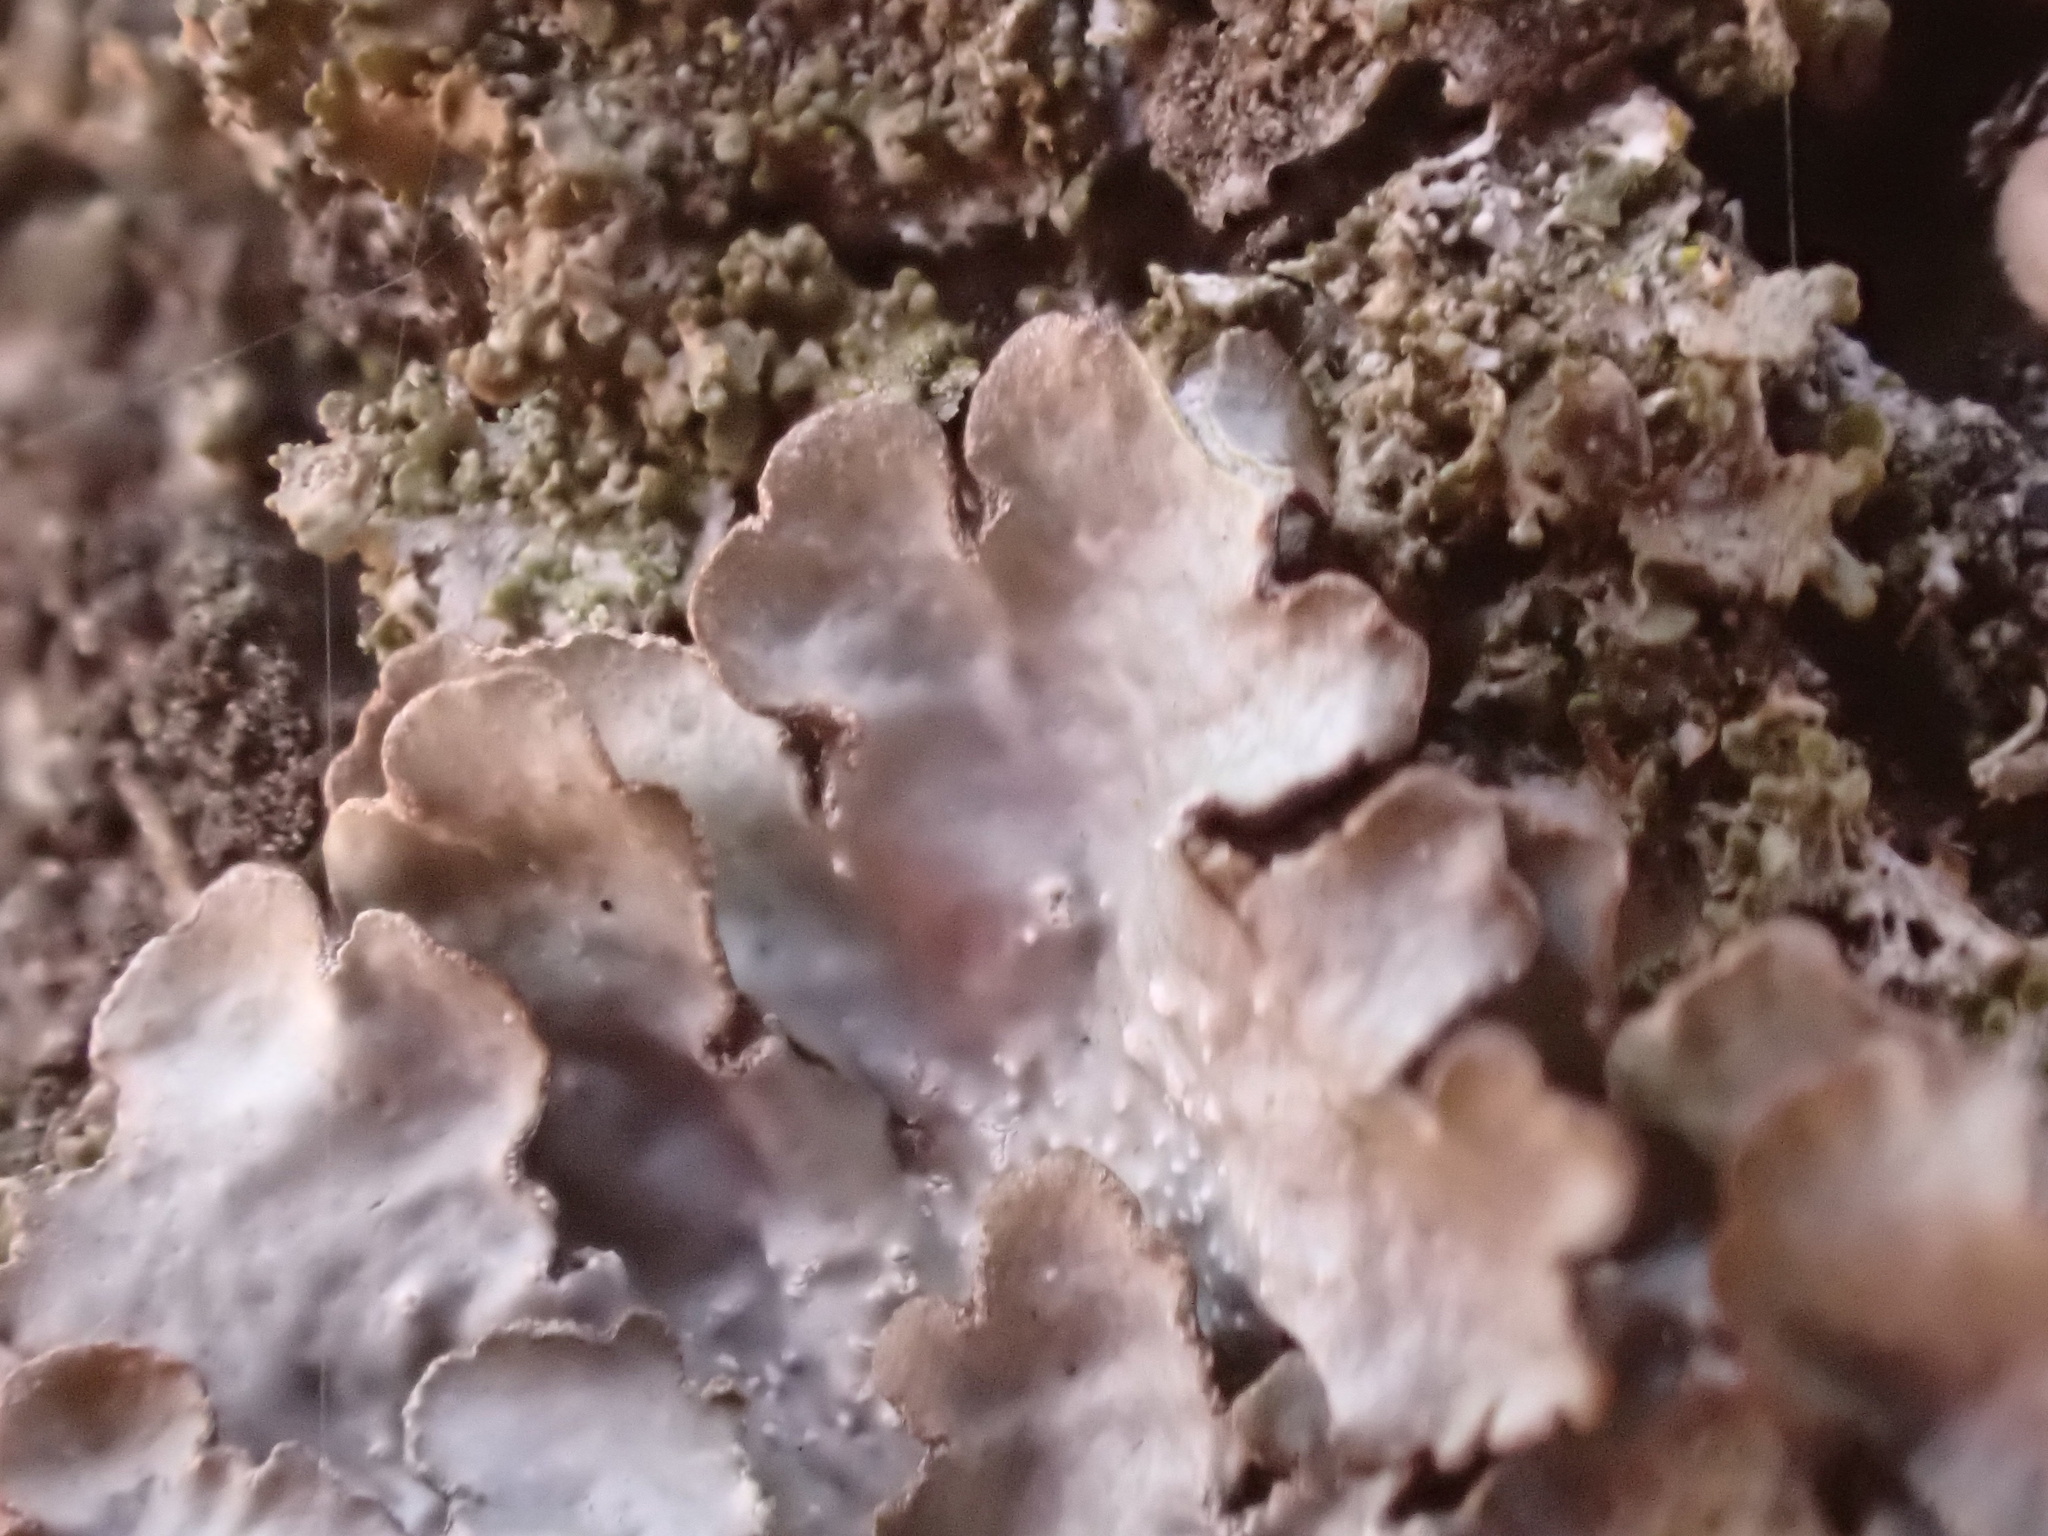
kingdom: Fungi
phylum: Ascomycota
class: Lecanoromycetes
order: Lecanorales
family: Parmeliaceae
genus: Punctelia
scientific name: Punctelia jeckeri
